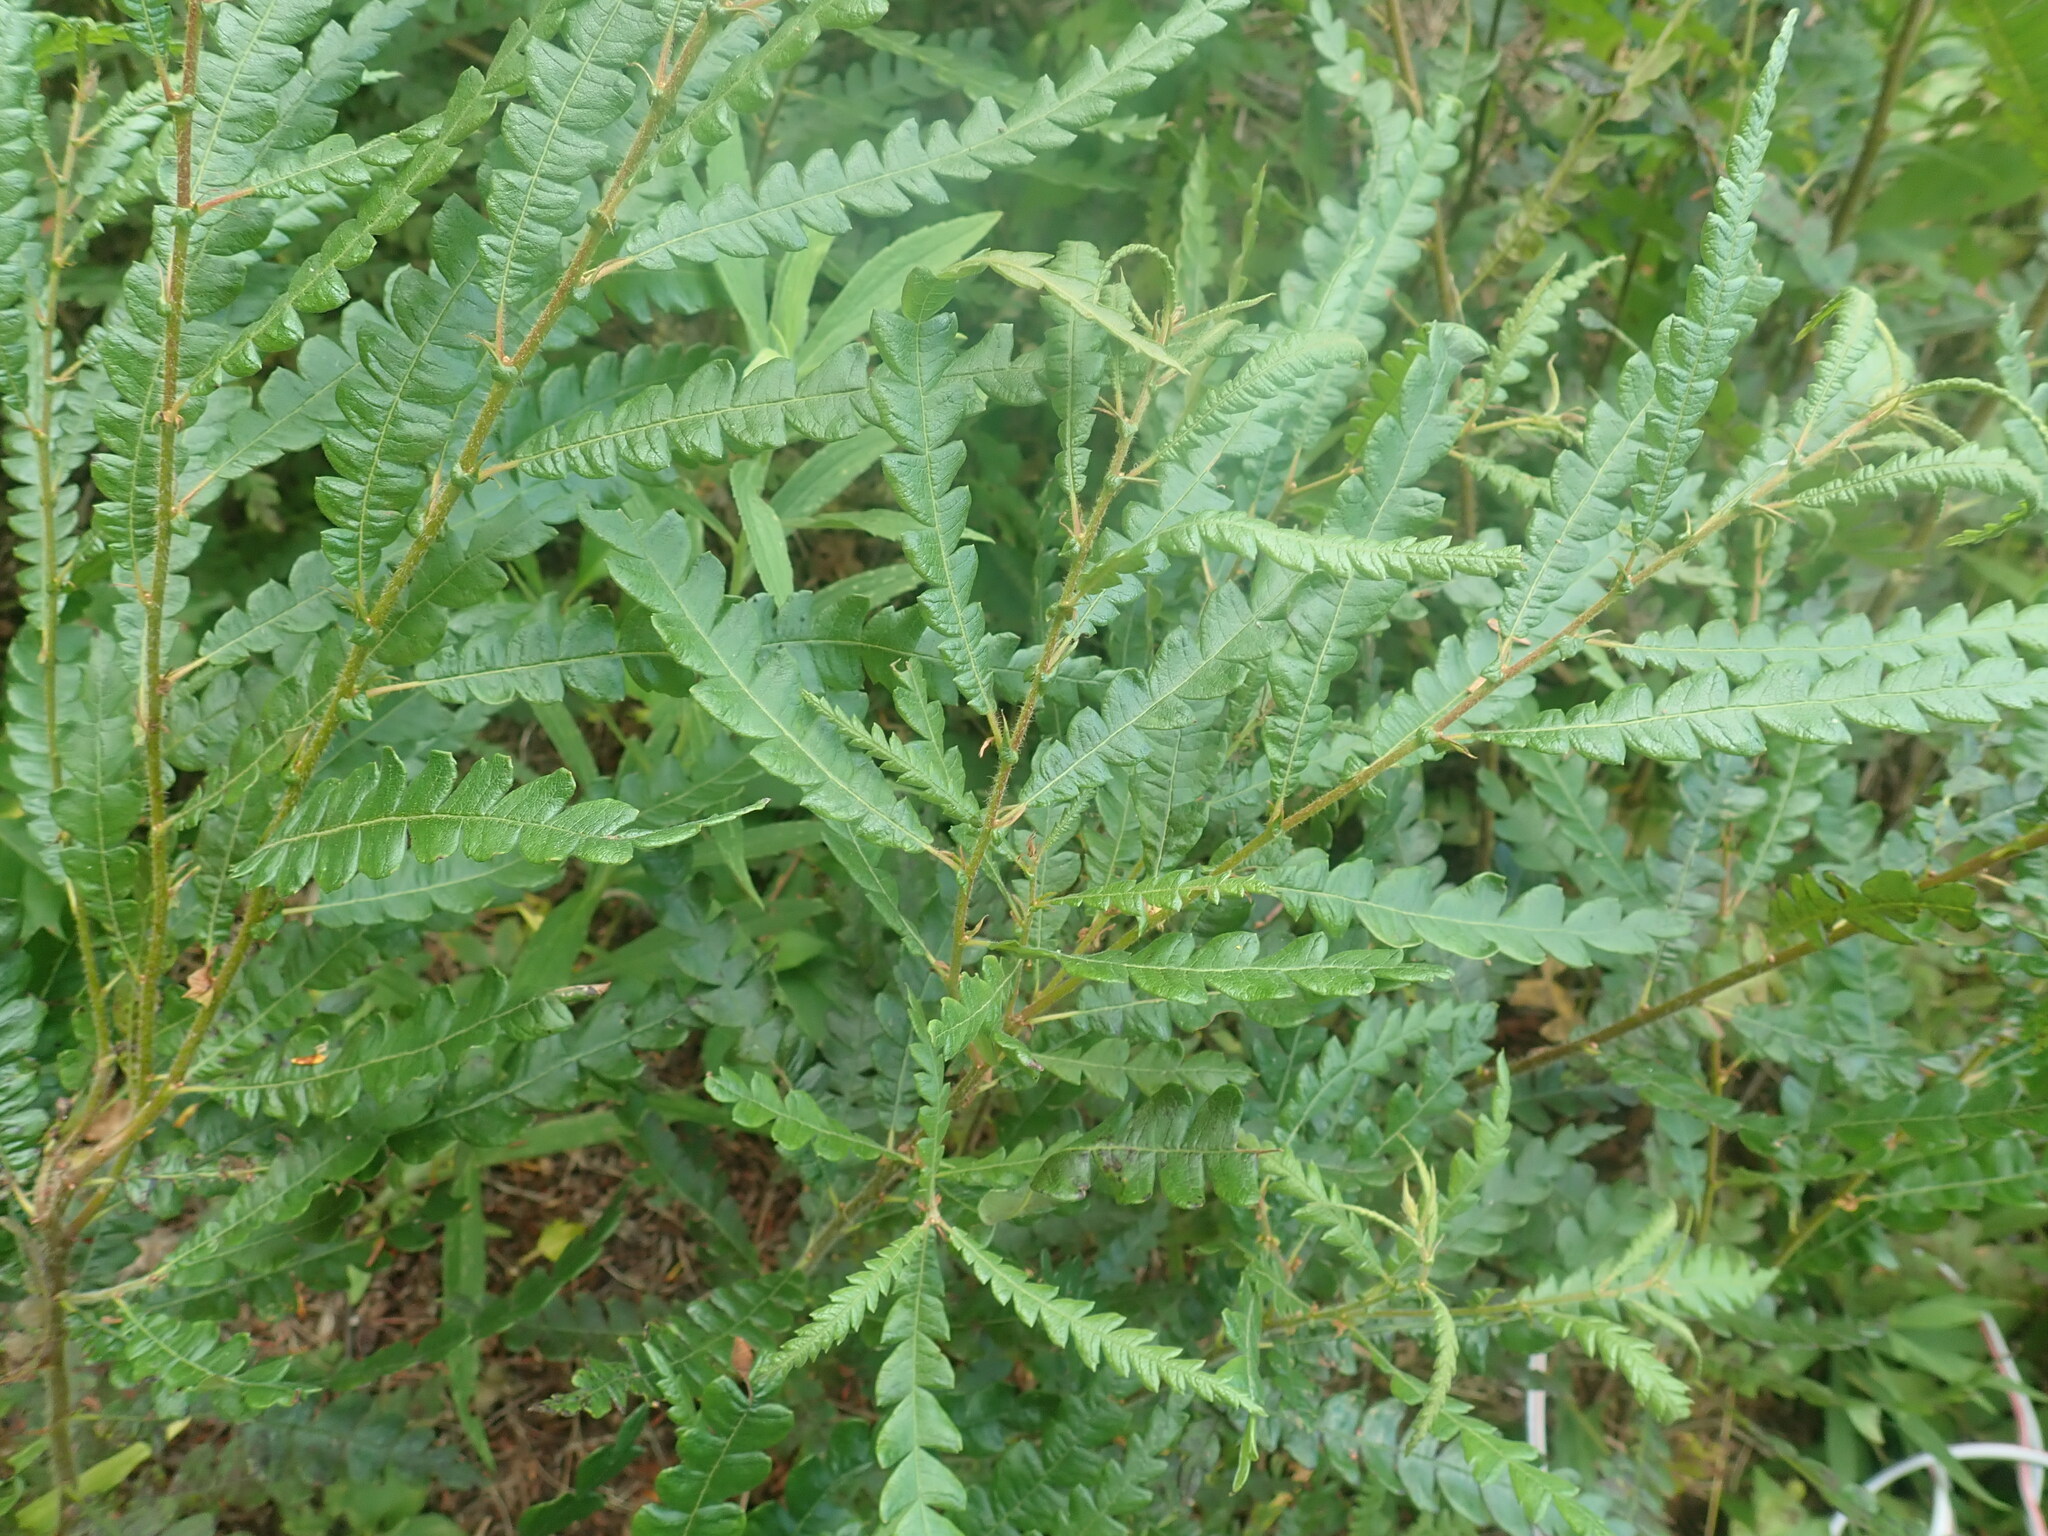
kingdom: Plantae
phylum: Tracheophyta
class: Magnoliopsida
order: Fagales
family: Myricaceae
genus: Comptonia
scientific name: Comptonia peregrina
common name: Sweet-fern
